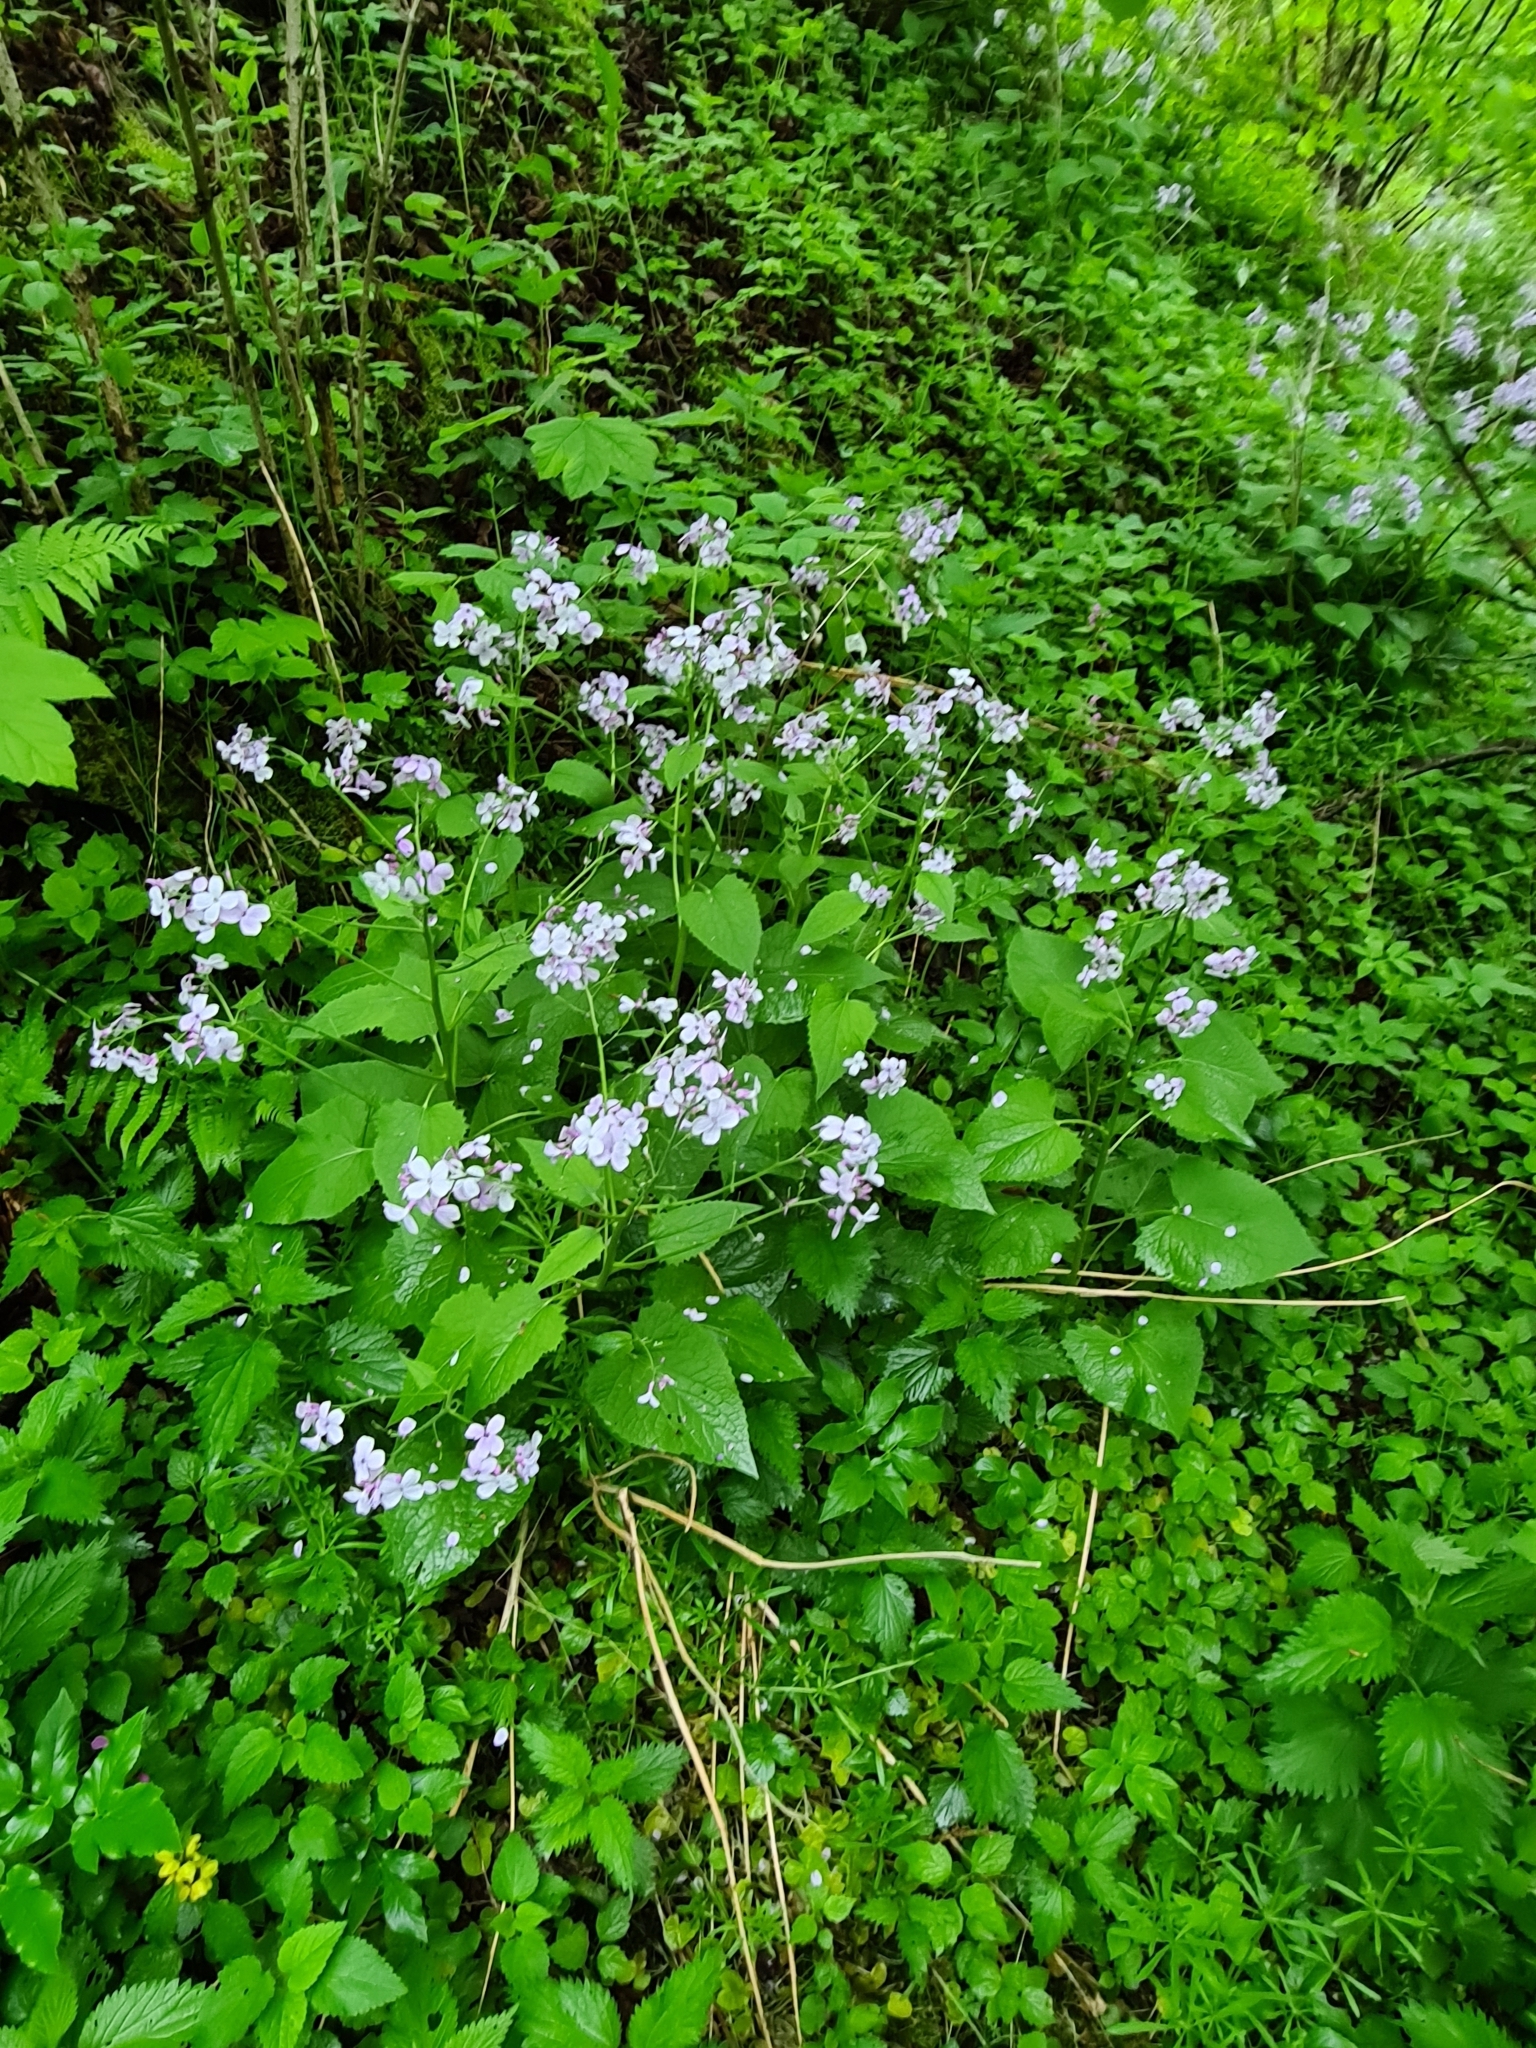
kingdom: Plantae
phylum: Tracheophyta
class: Magnoliopsida
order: Brassicales
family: Brassicaceae
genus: Lunaria
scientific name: Lunaria rediviva
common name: Perennial honesty
